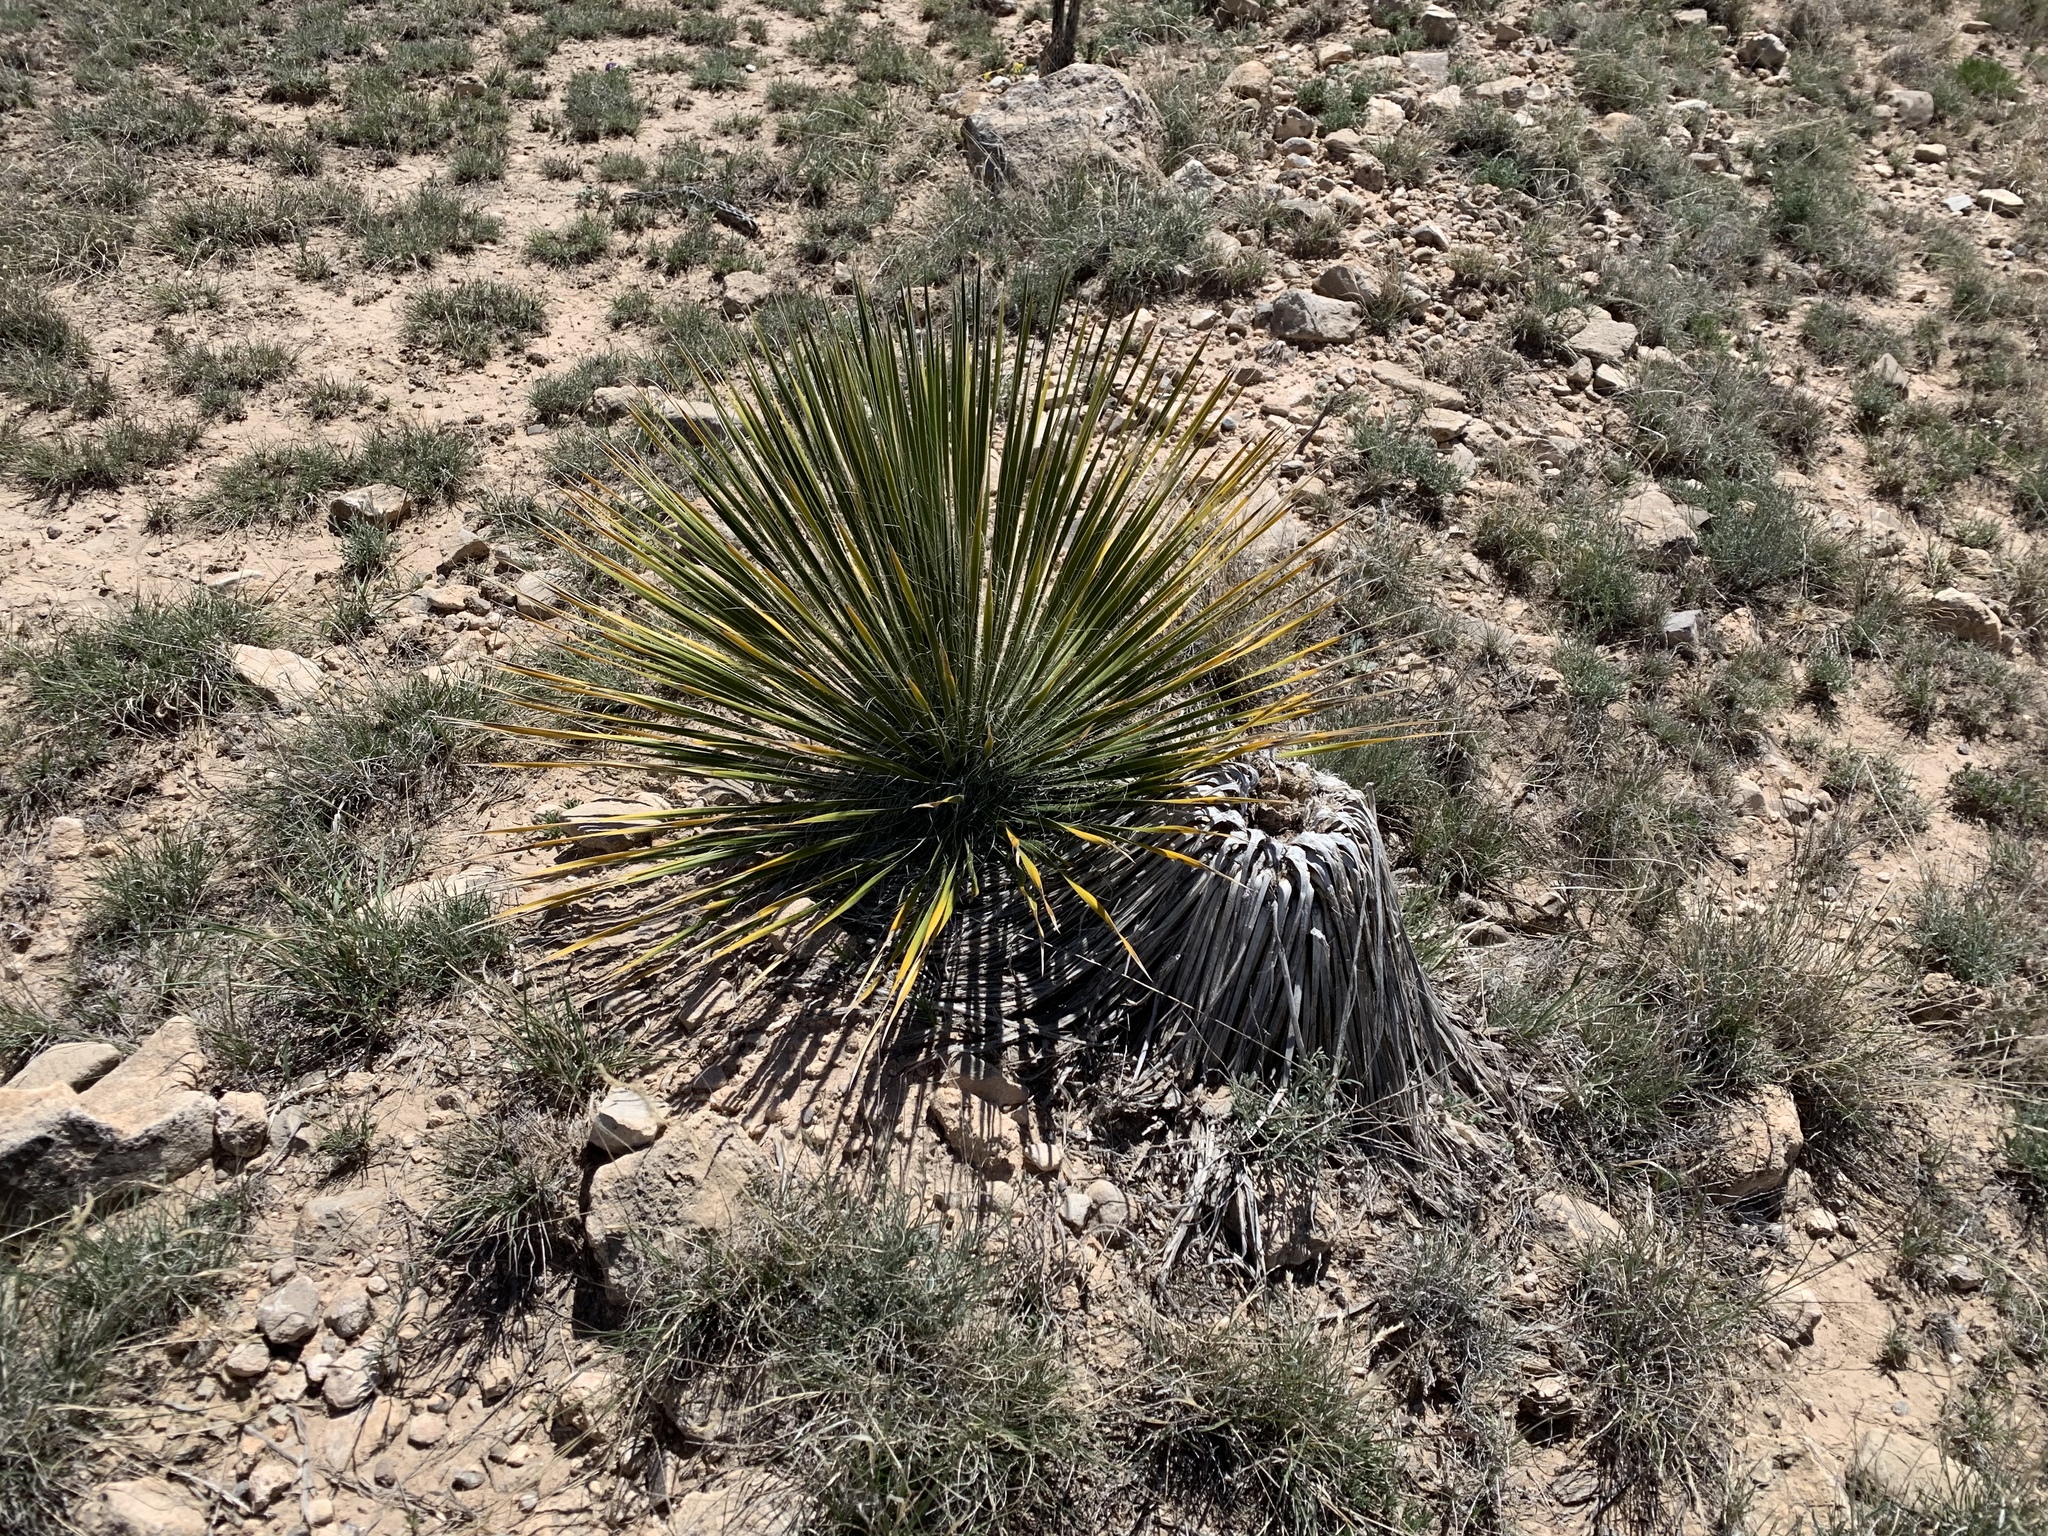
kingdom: Plantae
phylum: Tracheophyta
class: Liliopsida
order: Asparagales
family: Asparagaceae
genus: Yucca
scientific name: Yucca elata
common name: Palmella
